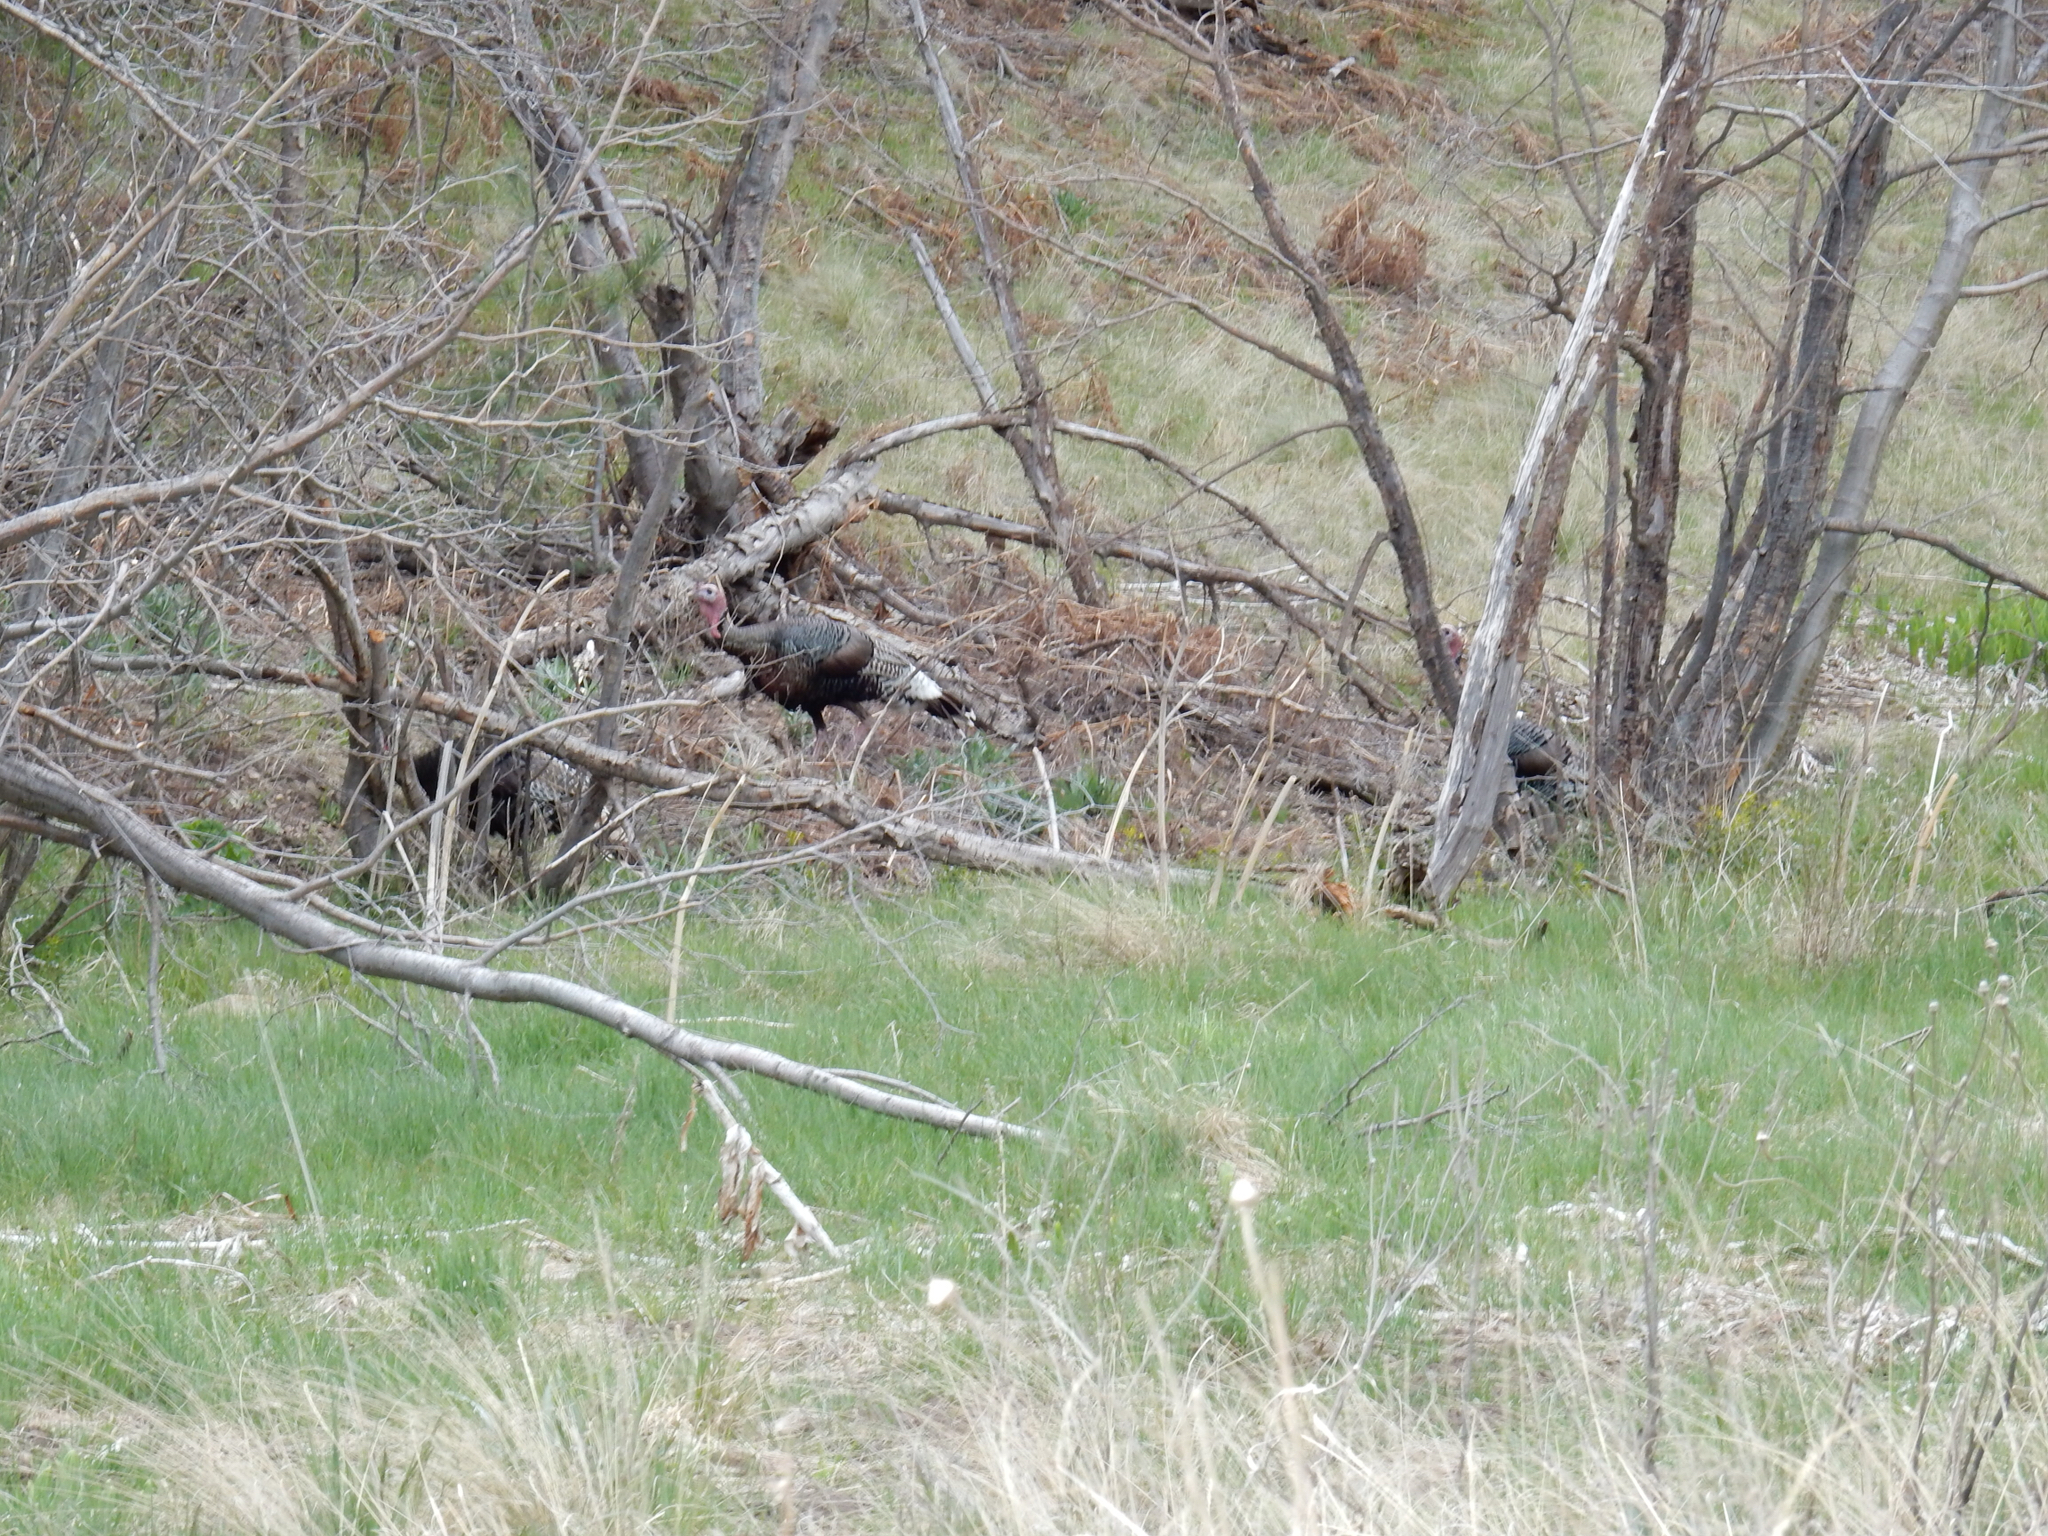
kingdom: Animalia
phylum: Chordata
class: Aves
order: Galliformes
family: Phasianidae
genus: Meleagris
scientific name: Meleagris gallopavo
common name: Wild turkey
